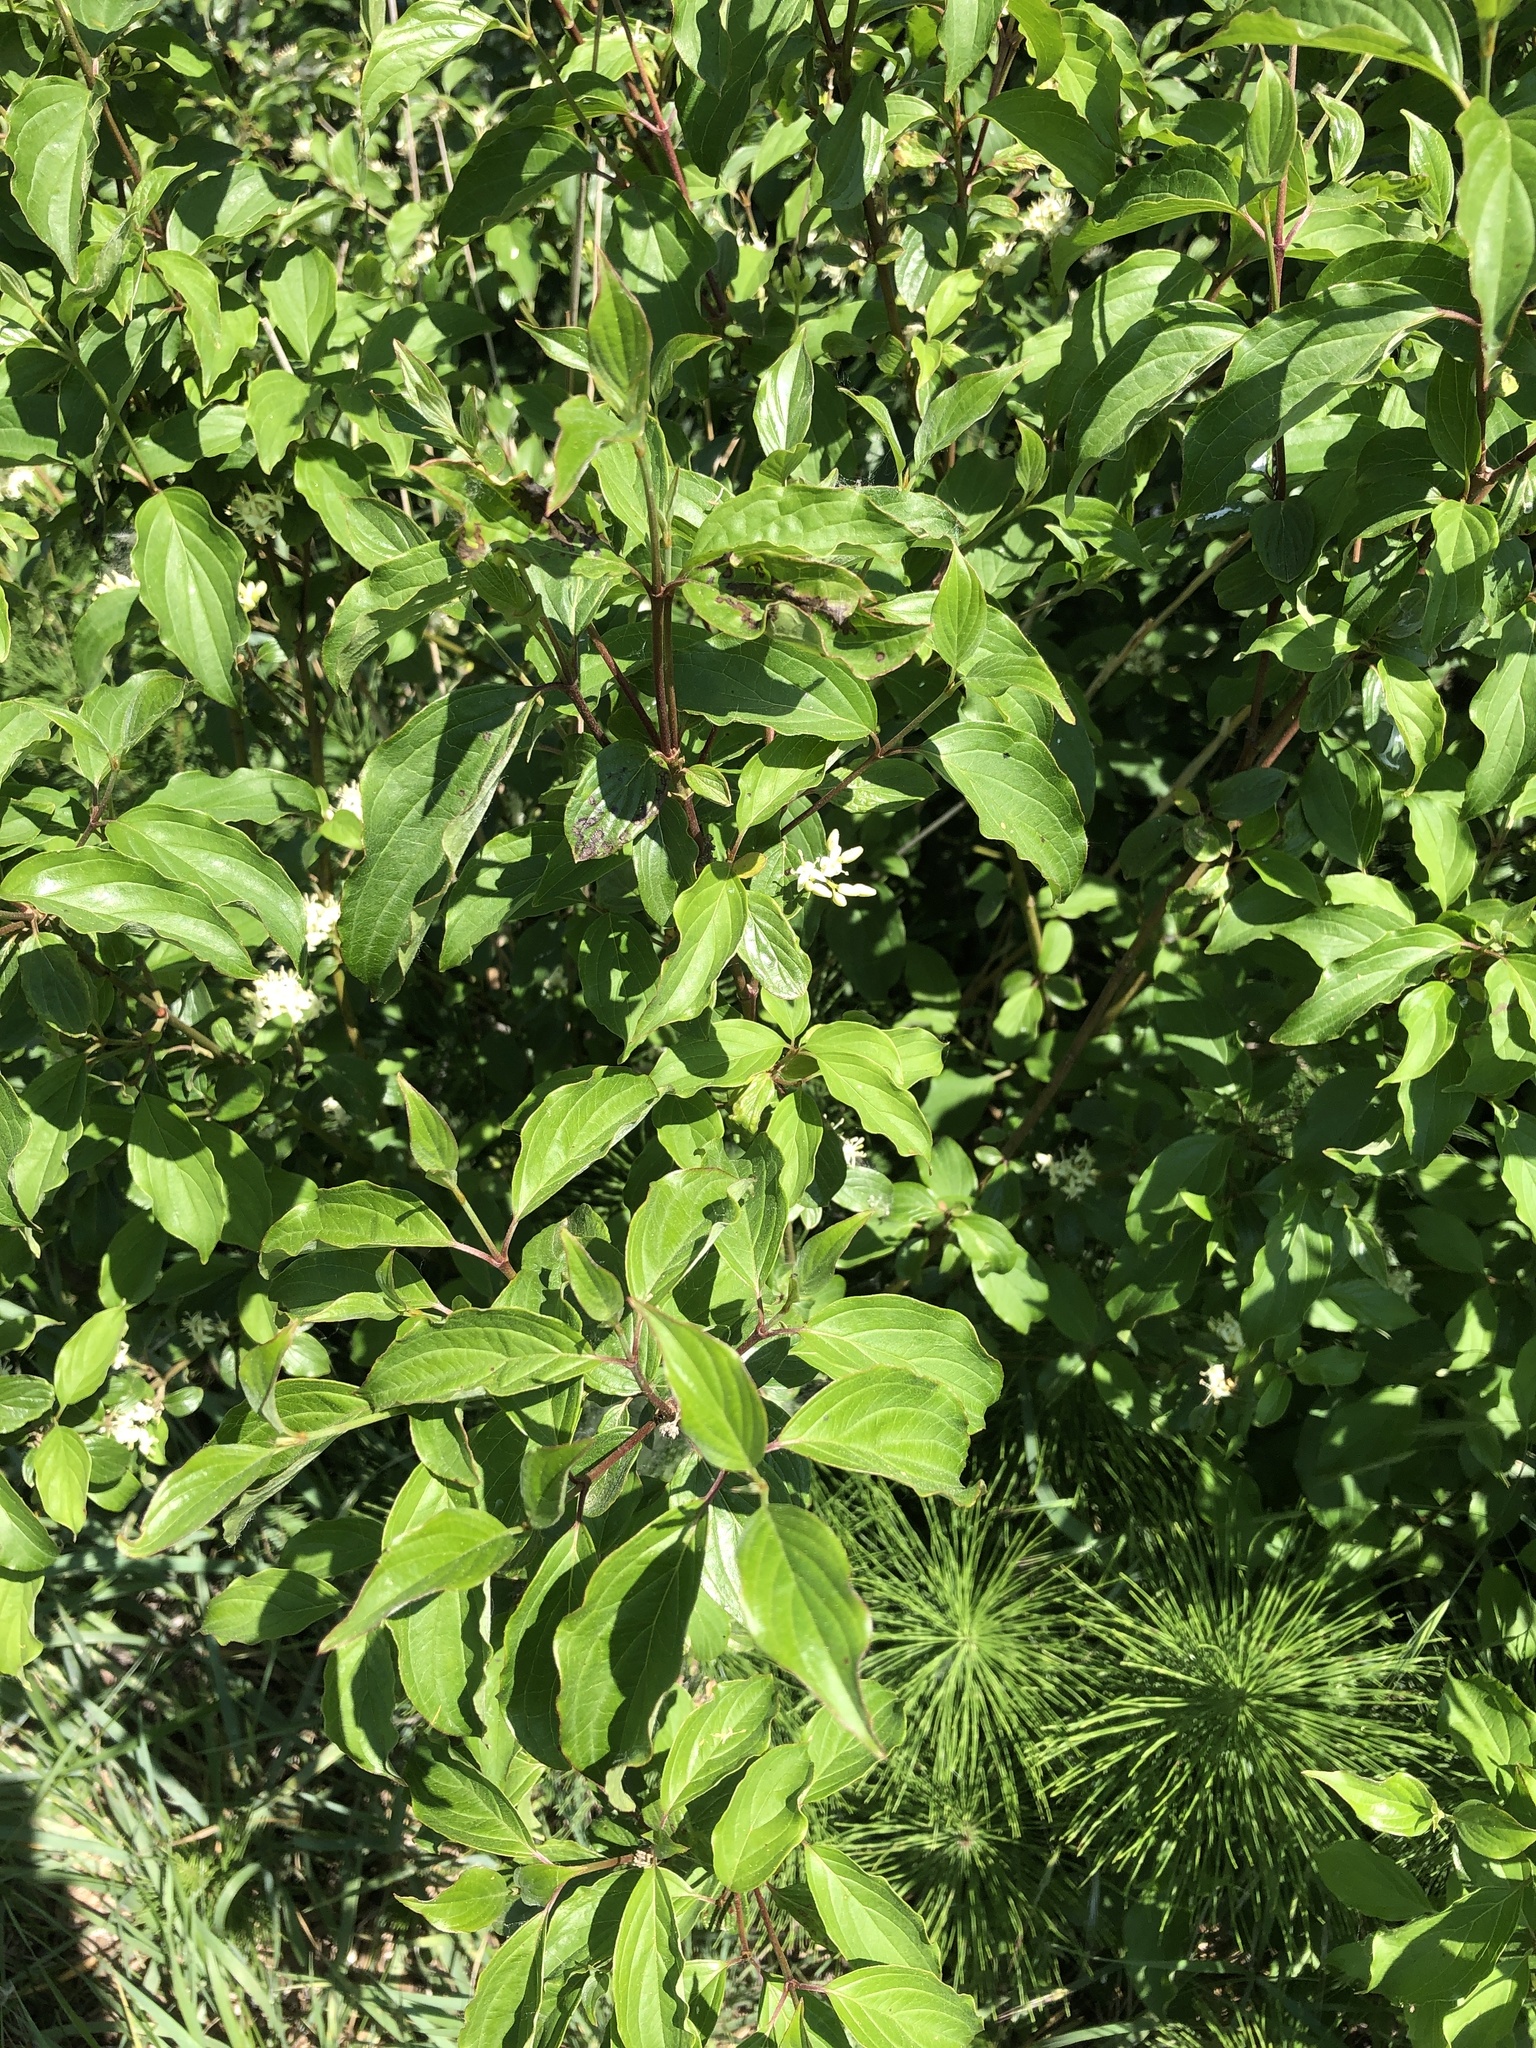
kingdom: Plantae
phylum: Tracheophyta
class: Magnoliopsida
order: Cornales
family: Cornaceae
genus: Cornus
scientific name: Cornus sanguinea
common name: Dogwood
